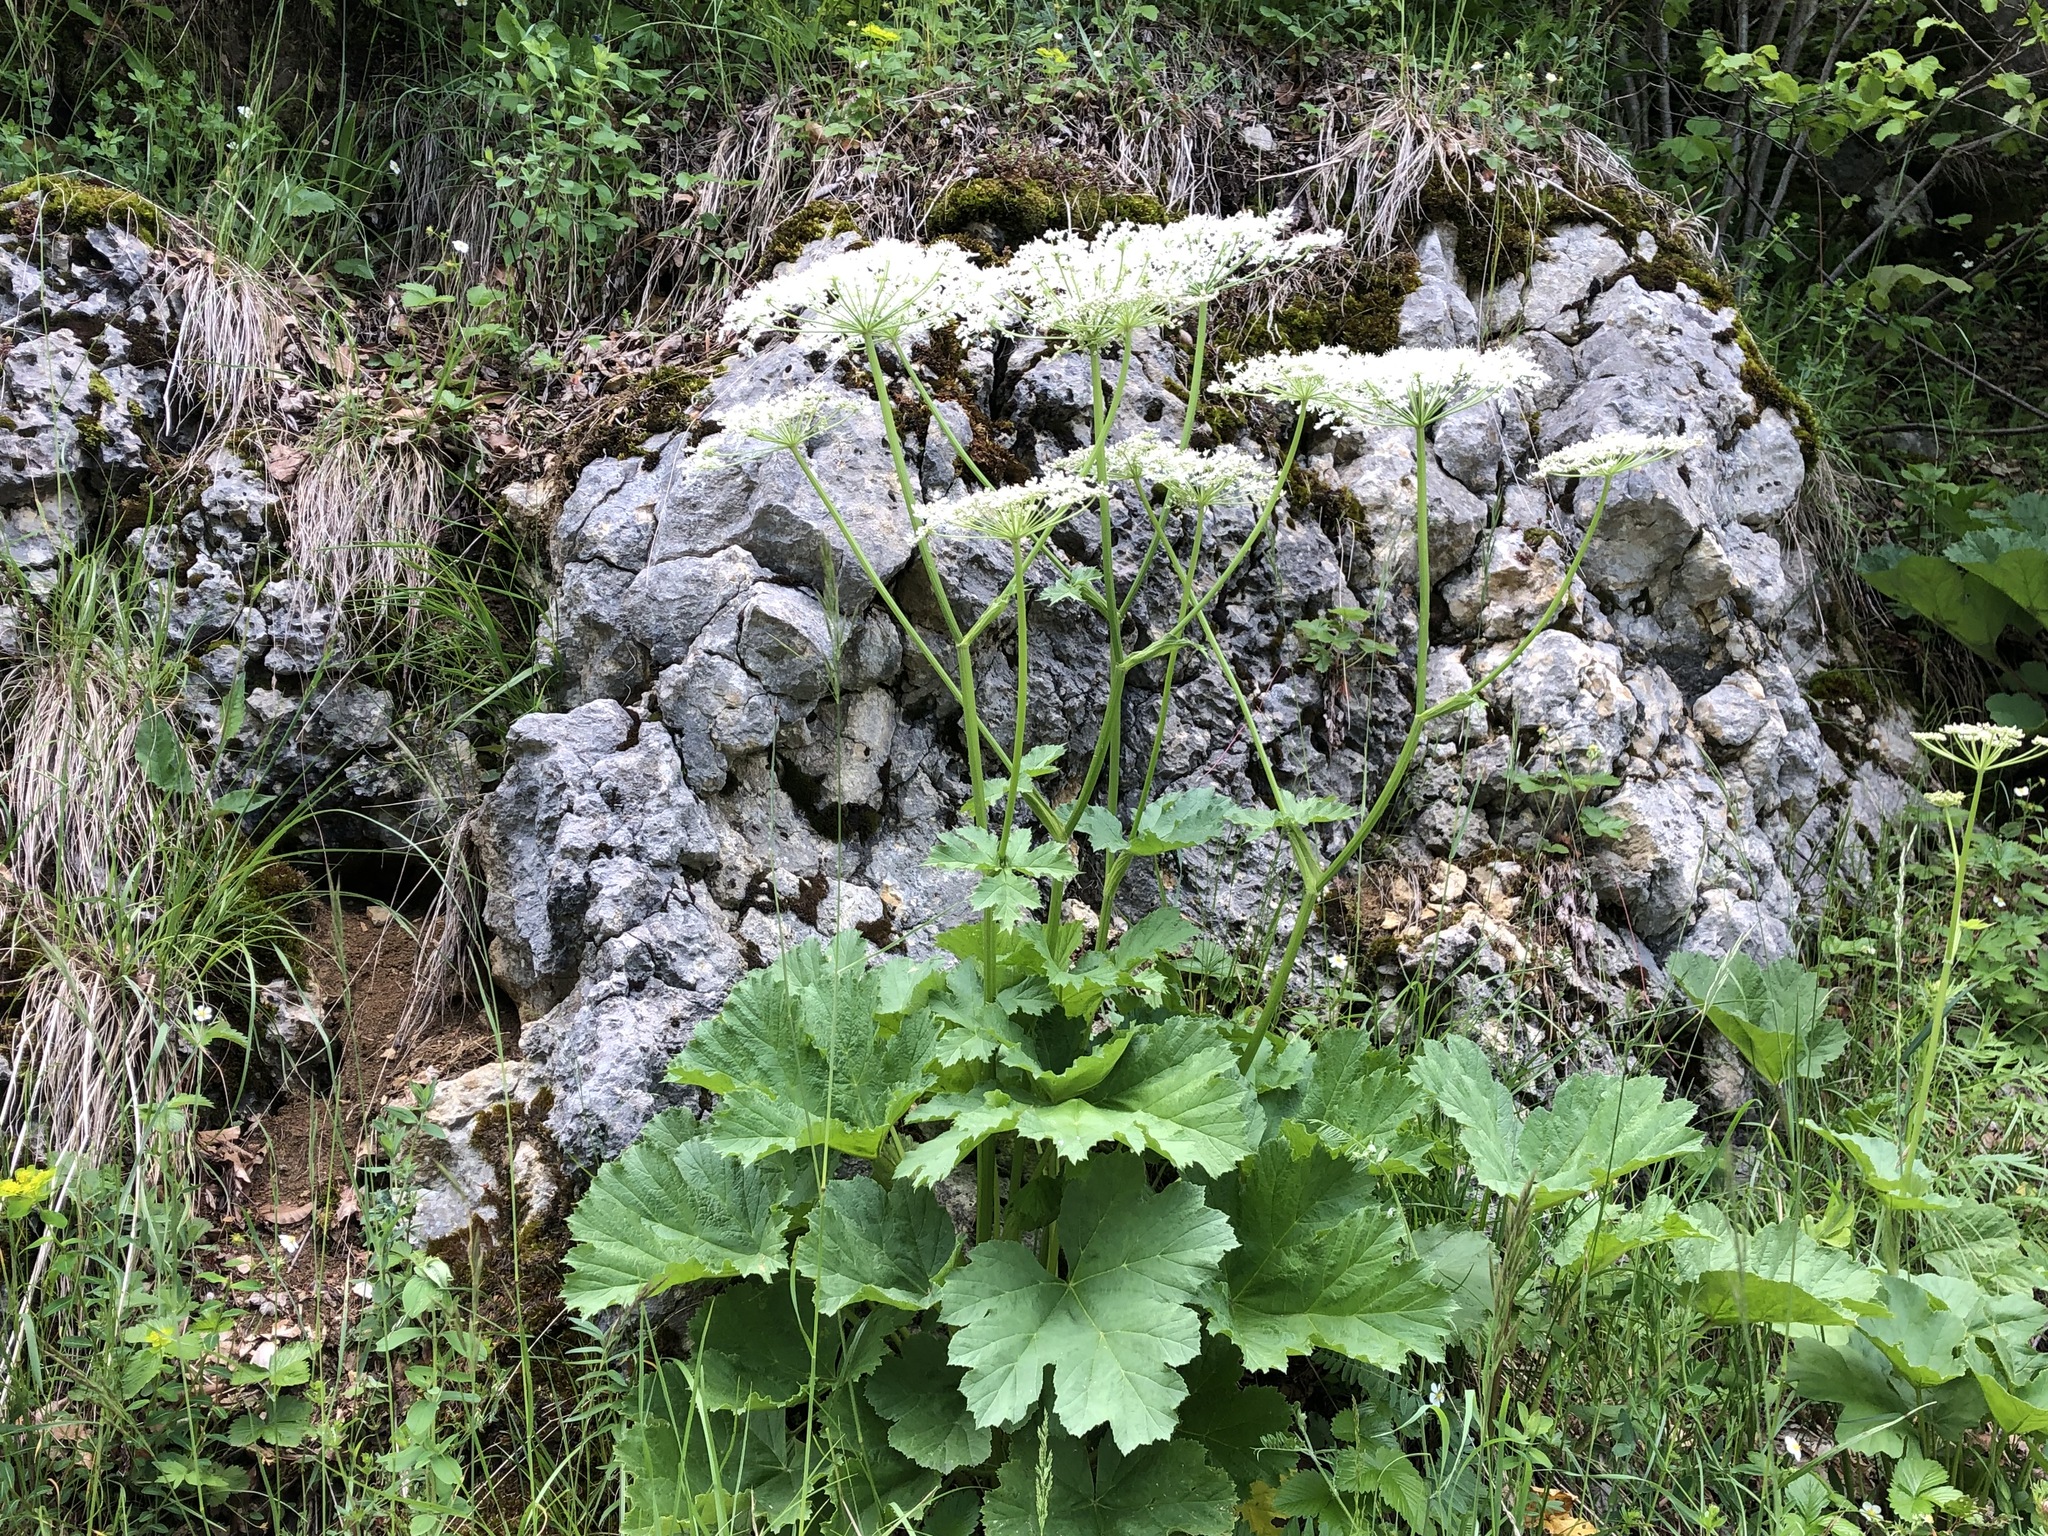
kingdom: Plantae
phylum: Tracheophyta
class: Magnoliopsida
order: Apiales
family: Apiaceae
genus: Heracleum
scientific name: Heracleum sphondylium
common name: Hogweed
